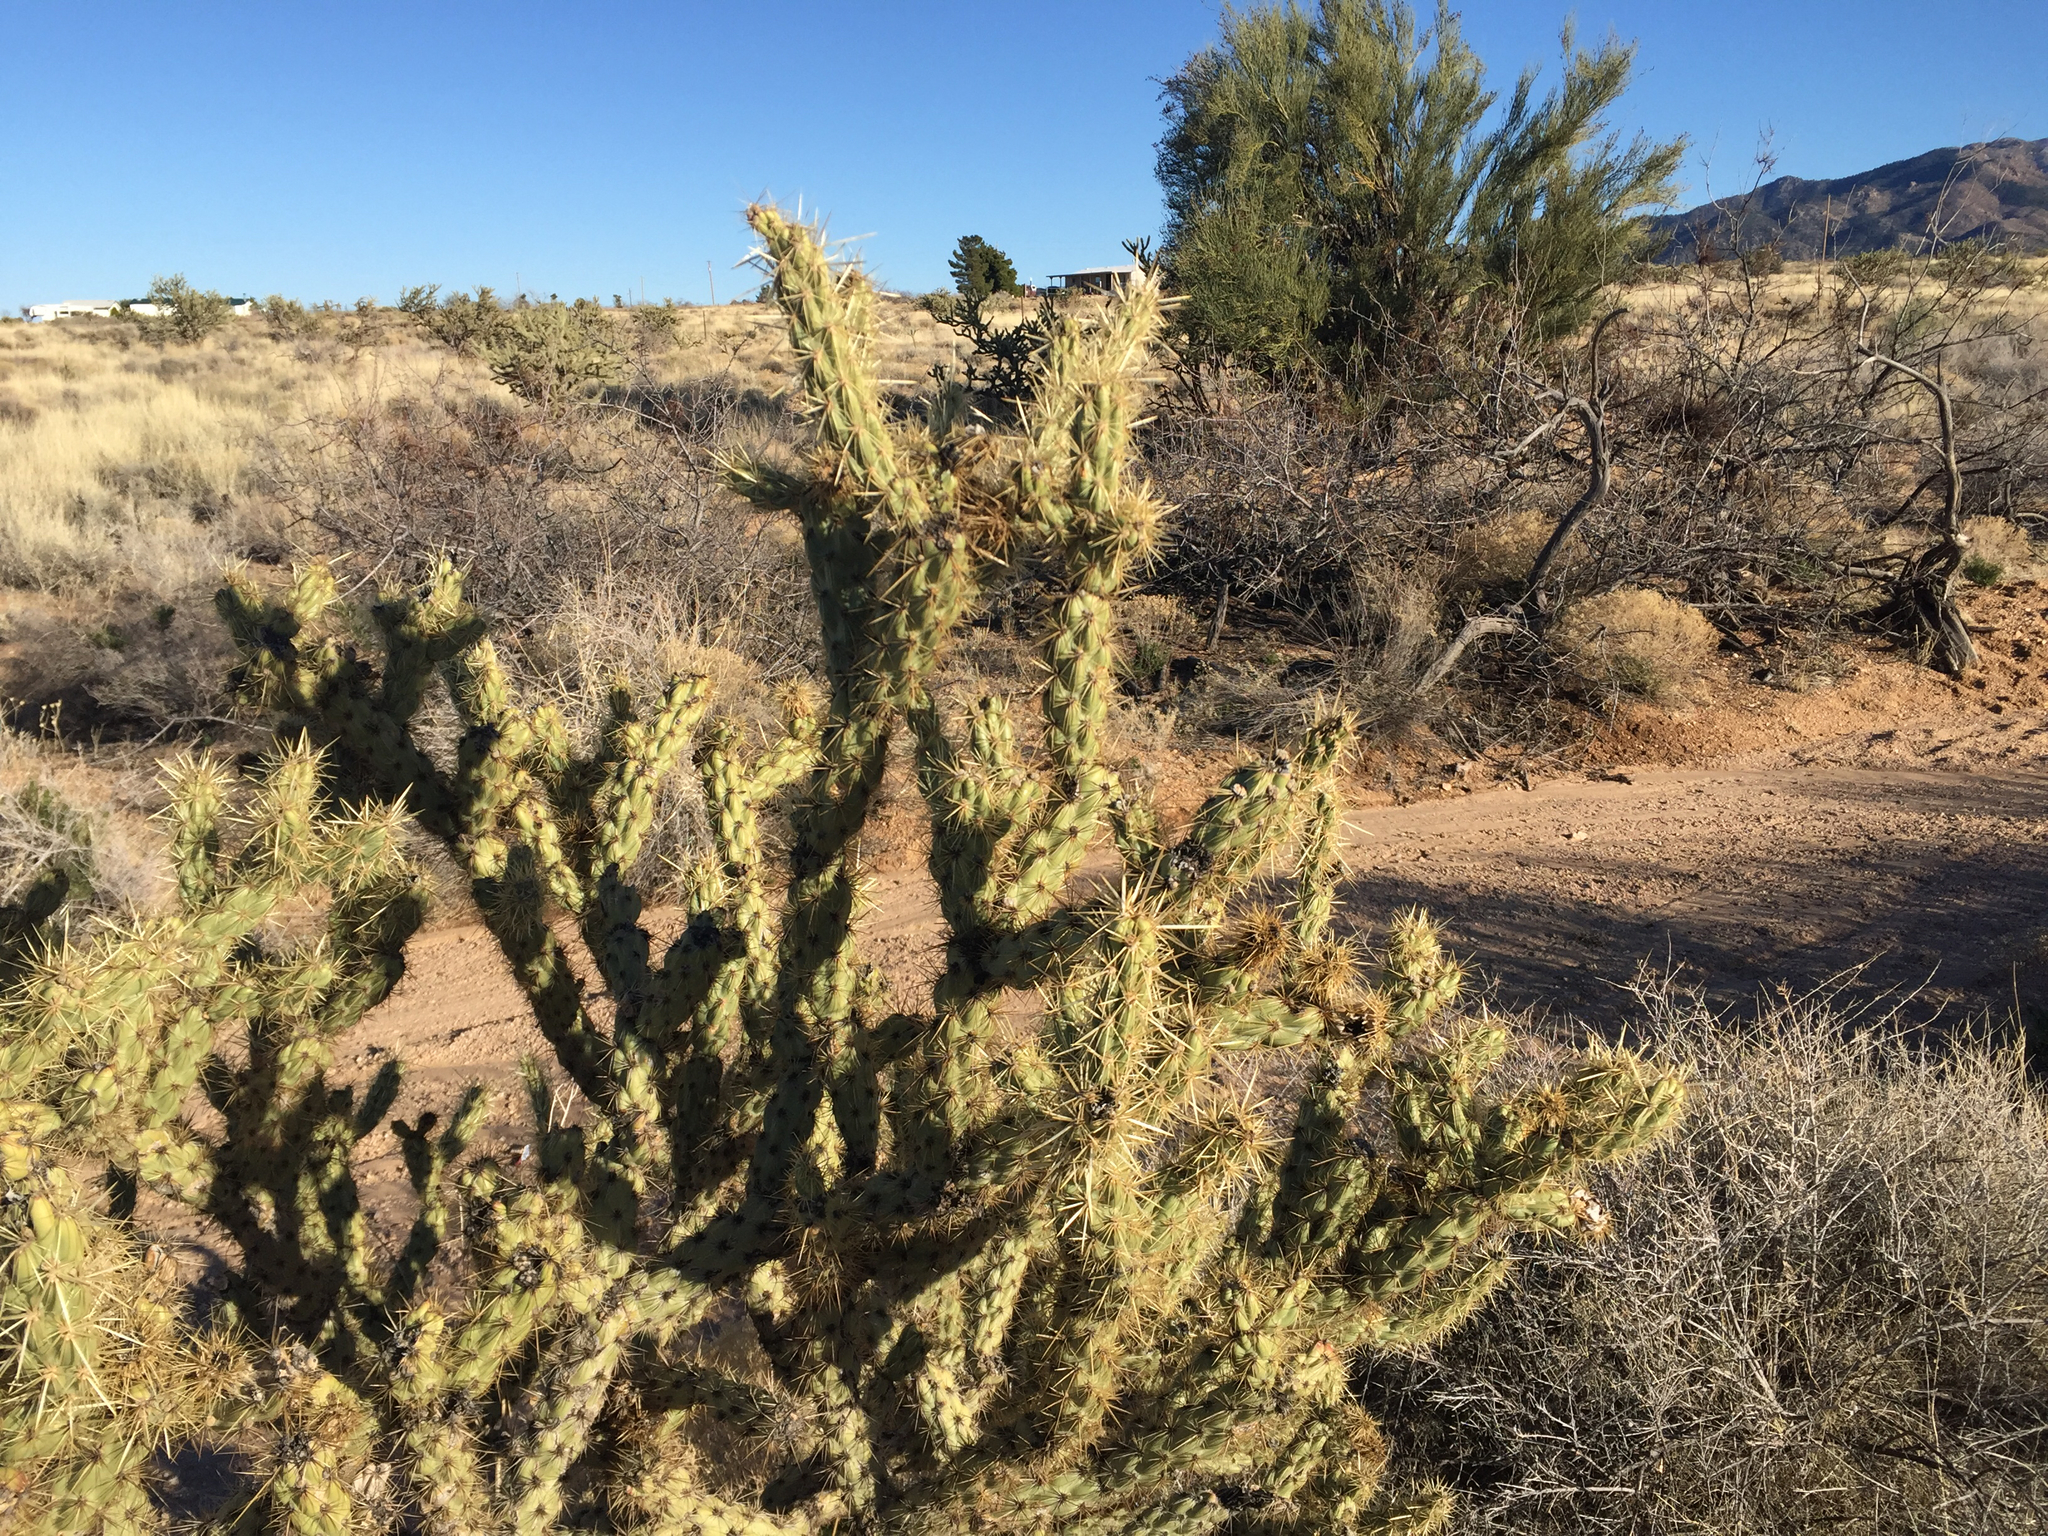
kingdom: Plantae
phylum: Tracheophyta
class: Magnoliopsida
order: Caryophyllales
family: Cactaceae
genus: Cylindropuntia
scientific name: Cylindropuntia acanthocarpa
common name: Buckhorn cholla
